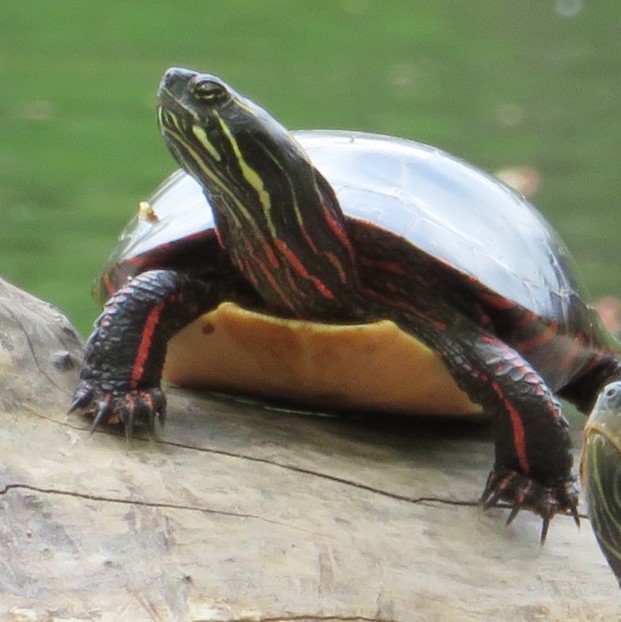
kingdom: Animalia
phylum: Chordata
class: Testudines
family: Emydidae
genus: Chrysemys
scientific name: Chrysemys picta
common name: Painted turtle
